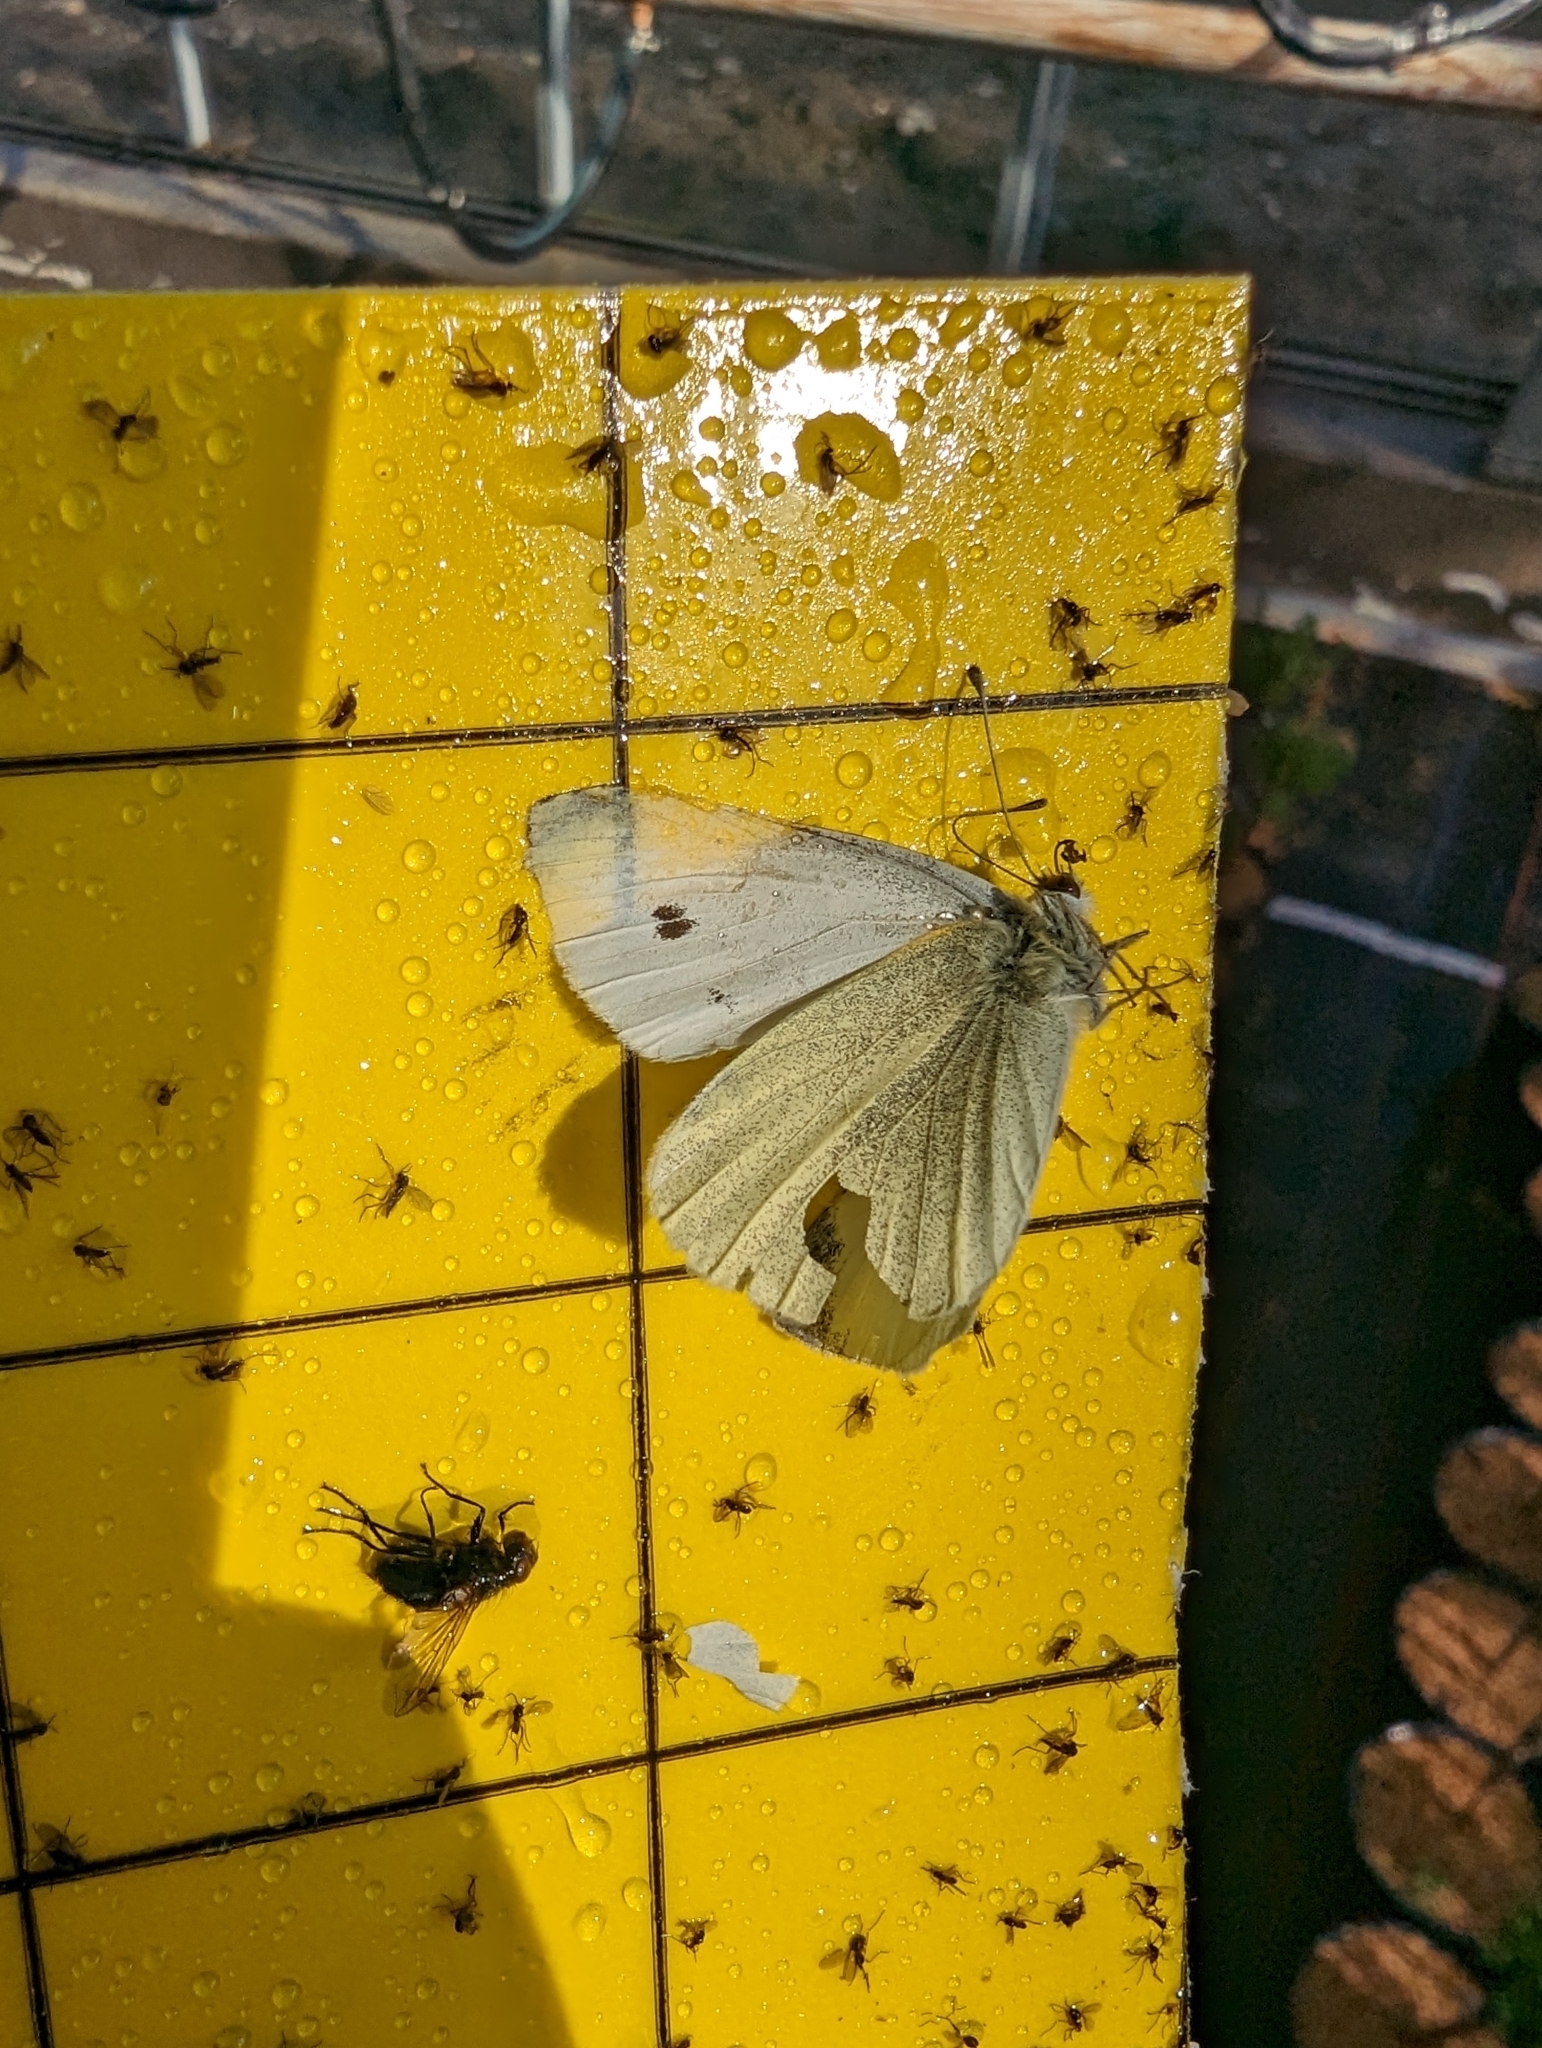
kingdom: Animalia
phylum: Arthropoda
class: Insecta
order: Lepidoptera
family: Pieridae
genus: Pieris
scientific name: Pieris rapae
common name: Small white
